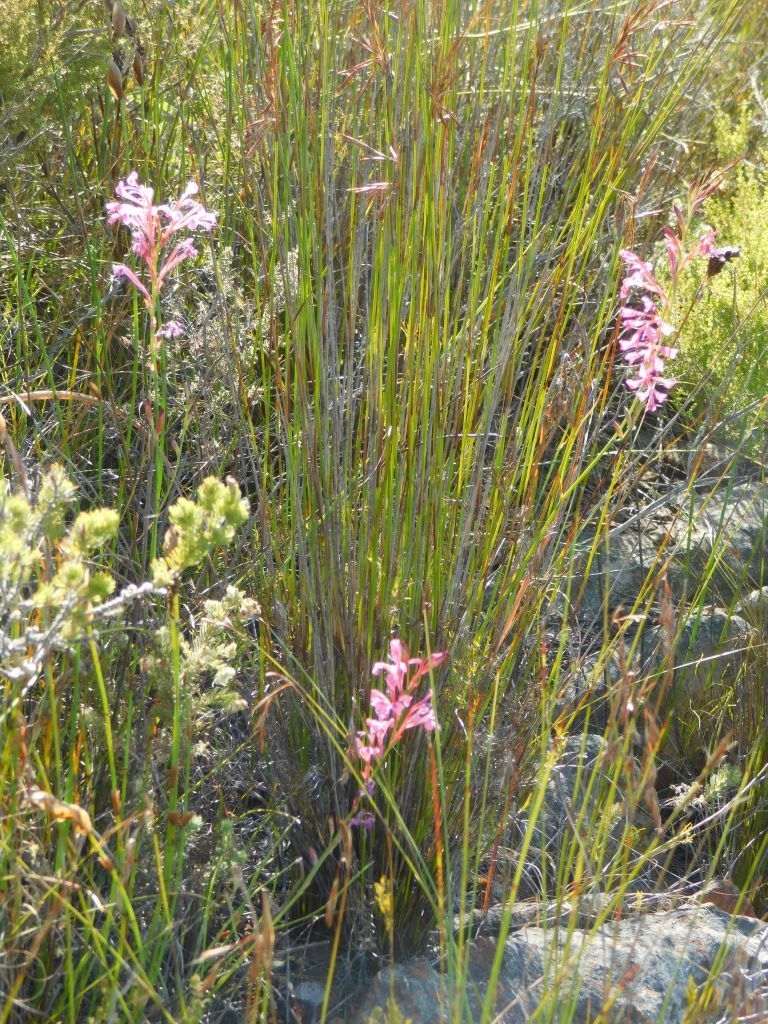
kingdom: Plantae
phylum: Tracheophyta
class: Liliopsida
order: Asparagales
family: Iridaceae
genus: Tritoniopsis
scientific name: Tritoniopsis ramosa
